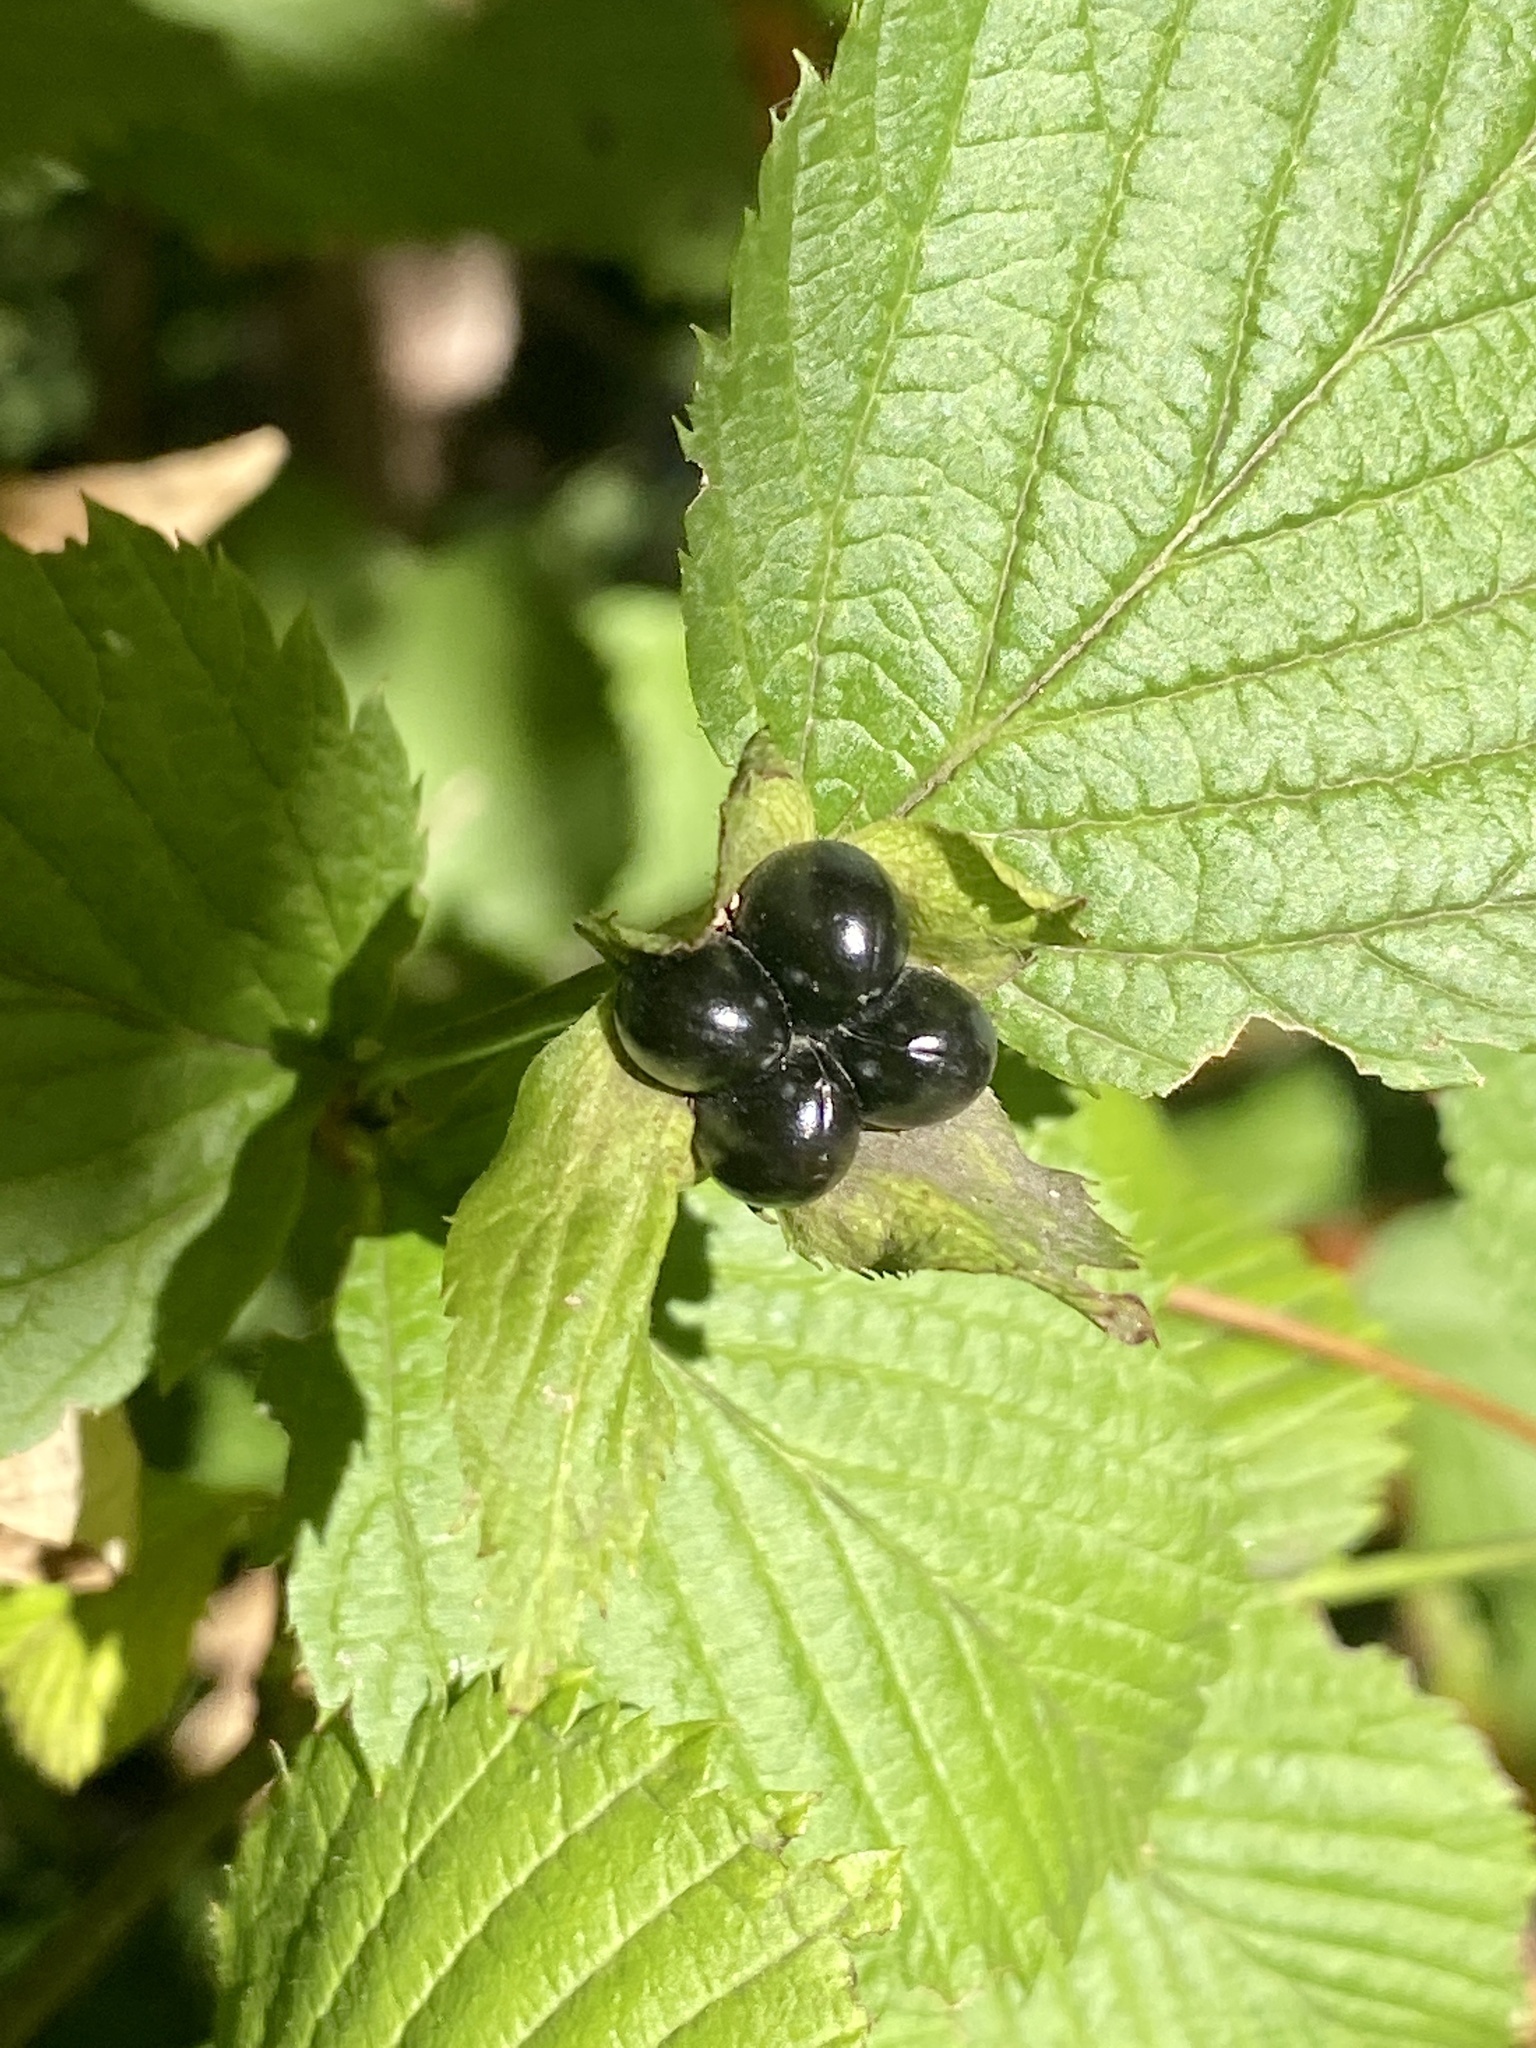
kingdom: Plantae
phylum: Tracheophyta
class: Magnoliopsida
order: Rosales
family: Rosaceae
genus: Rhodotypos
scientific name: Rhodotypos scandens
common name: Jetbead
